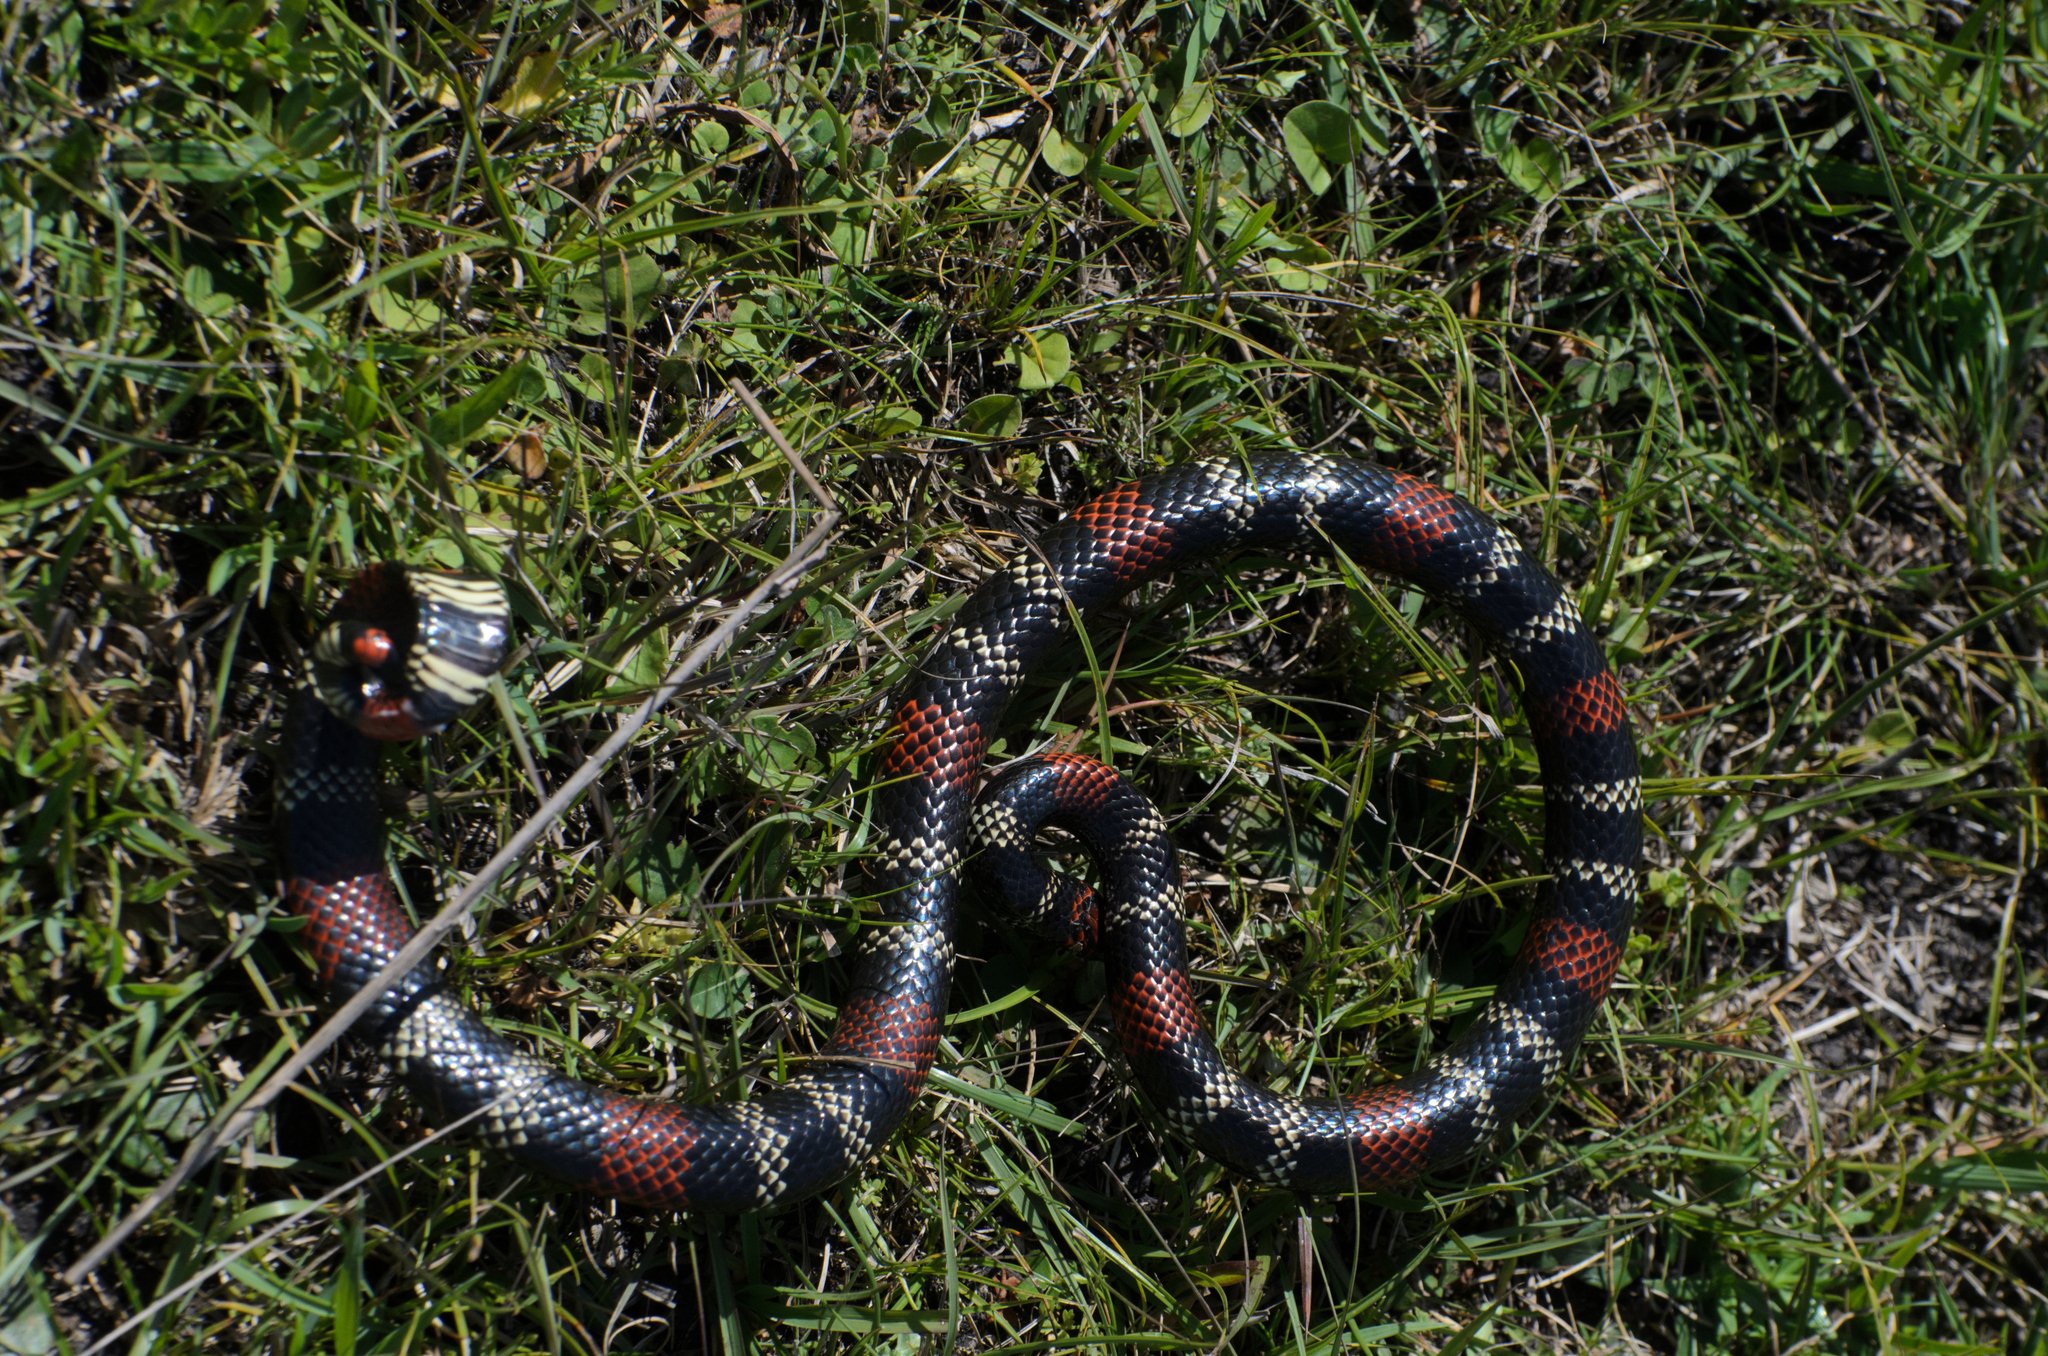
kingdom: Animalia
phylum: Chordata
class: Squamata
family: Elapidae
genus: Micrurus
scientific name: Micrurus altirostris
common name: Uruguayan coral snake
